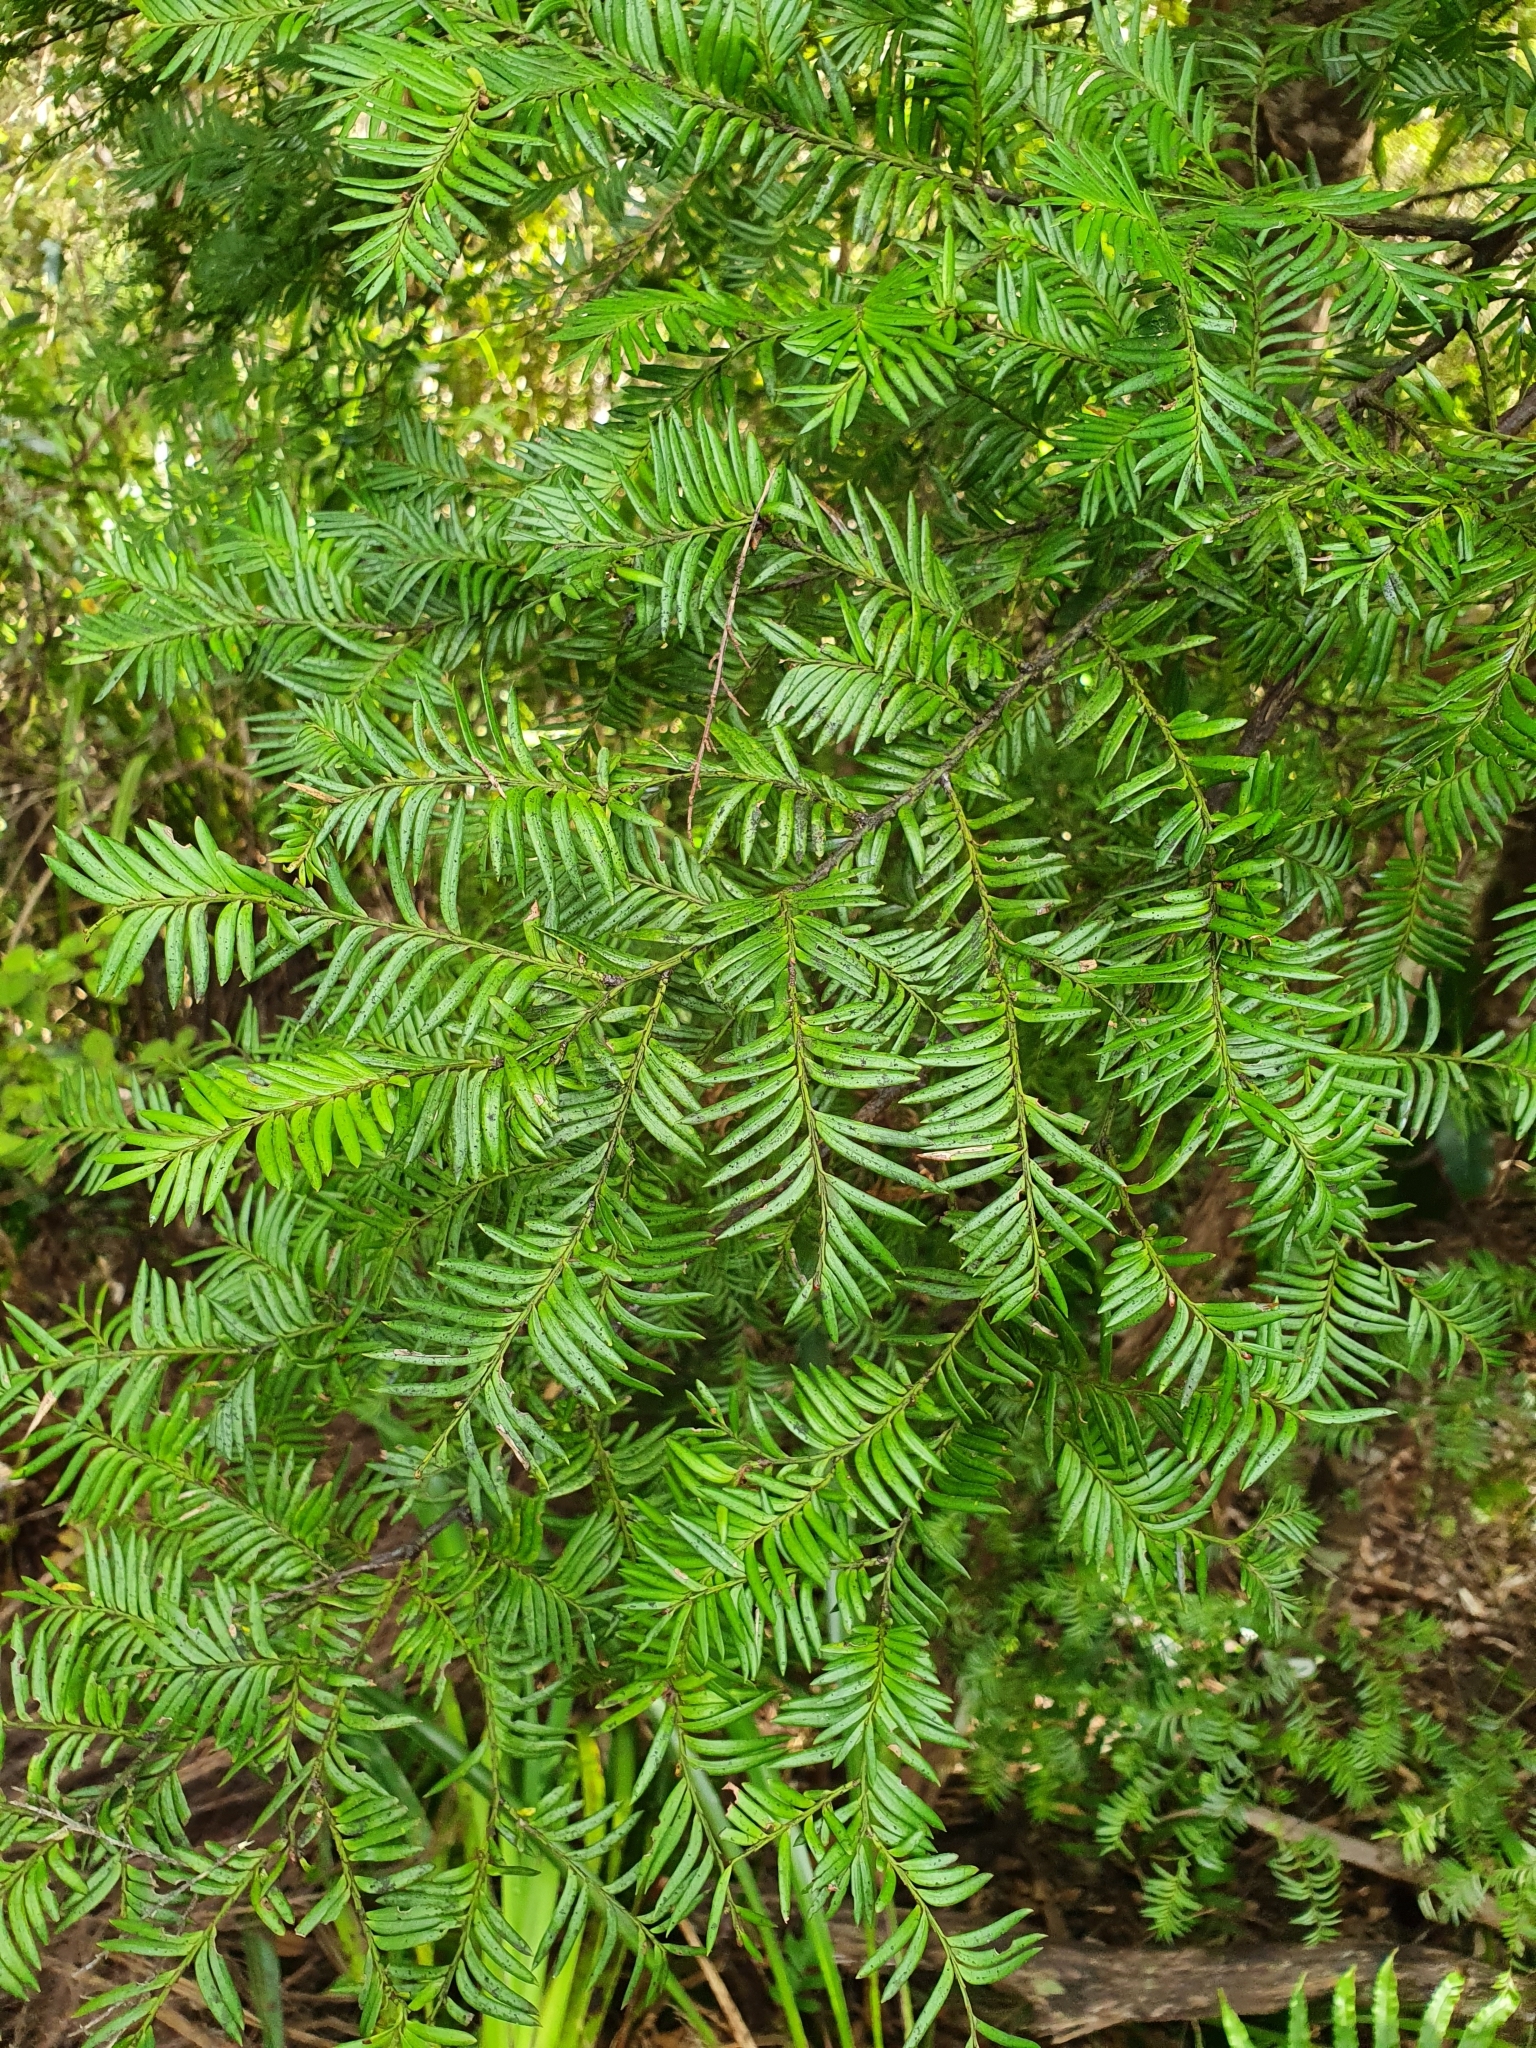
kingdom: Plantae
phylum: Tracheophyta
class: Pinopsida
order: Pinales
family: Podocarpaceae
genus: Prumnopitys
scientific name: Prumnopitys ferruginea
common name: Brown pine
